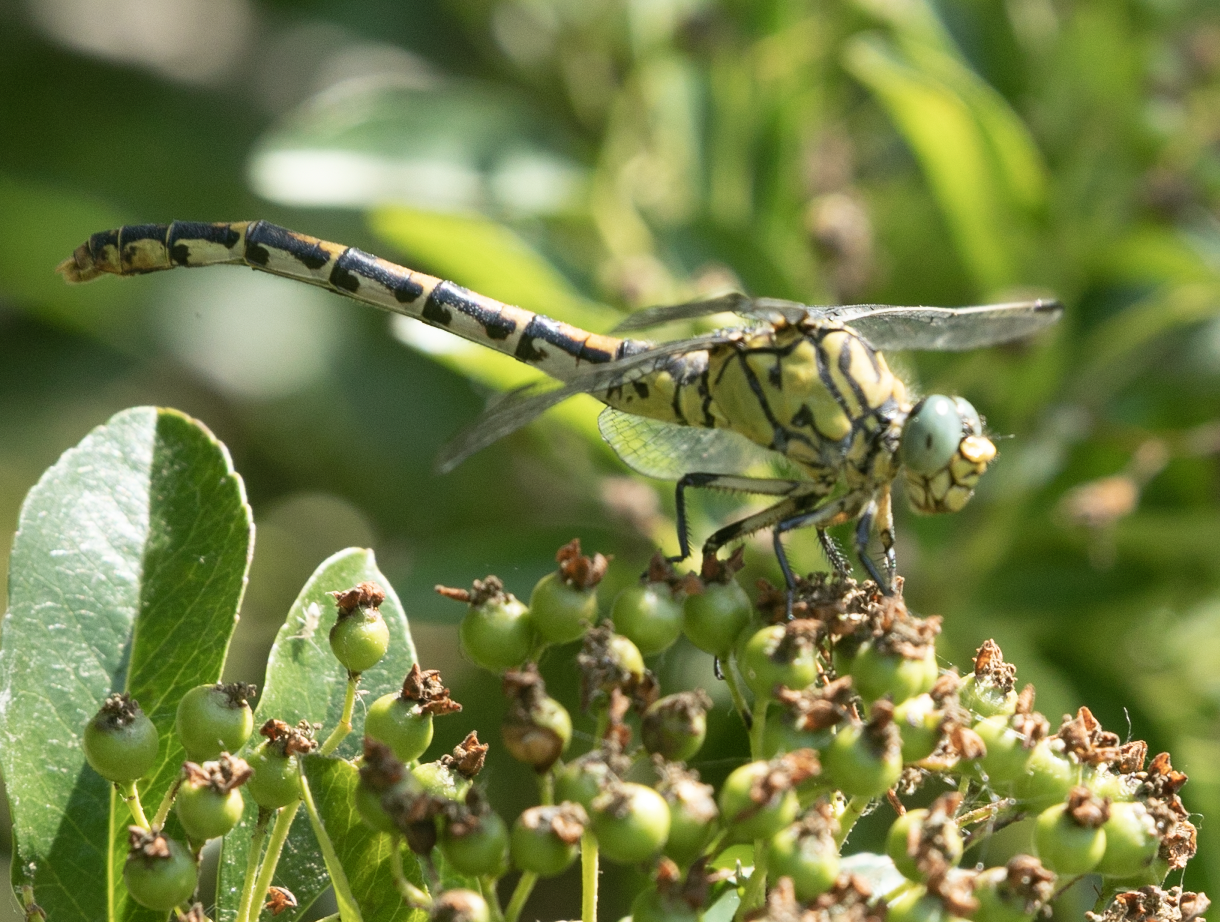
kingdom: Animalia
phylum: Arthropoda
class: Insecta
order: Odonata
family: Gomphidae
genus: Onychogomphus
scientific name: Onychogomphus forcipatus
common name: Small pincertail
